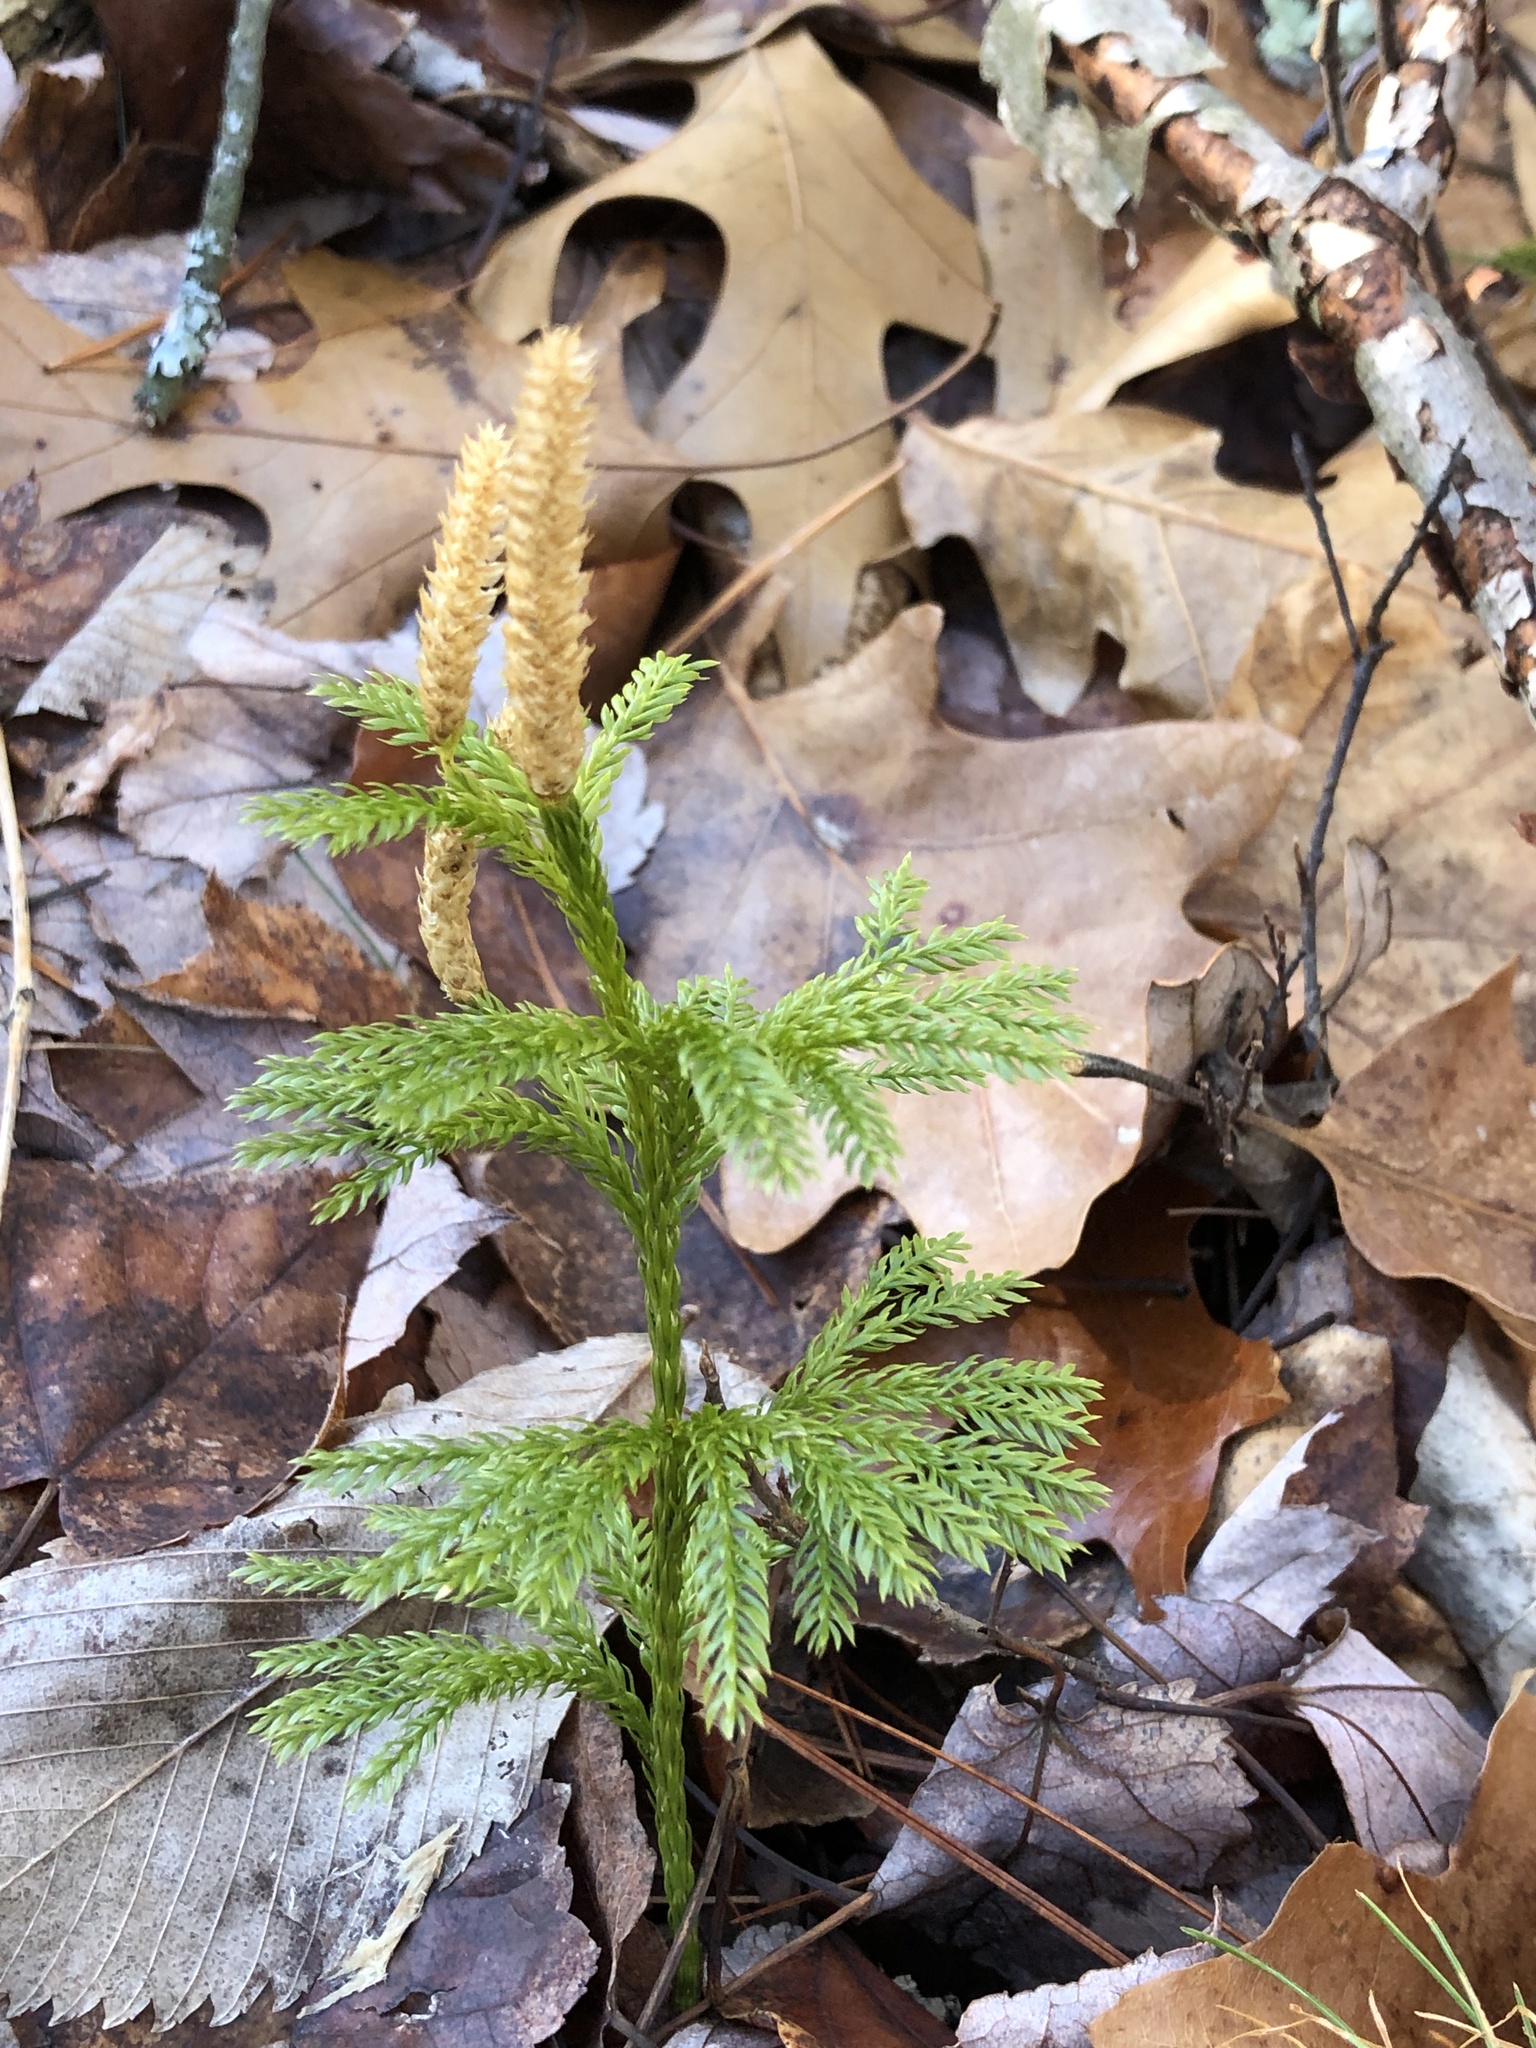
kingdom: Plantae
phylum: Tracheophyta
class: Lycopodiopsida
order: Lycopodiales
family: Lycopodiaceae
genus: Dendrolycopodium
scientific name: Dendrolycopodium obscurum
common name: Common ground-pine
